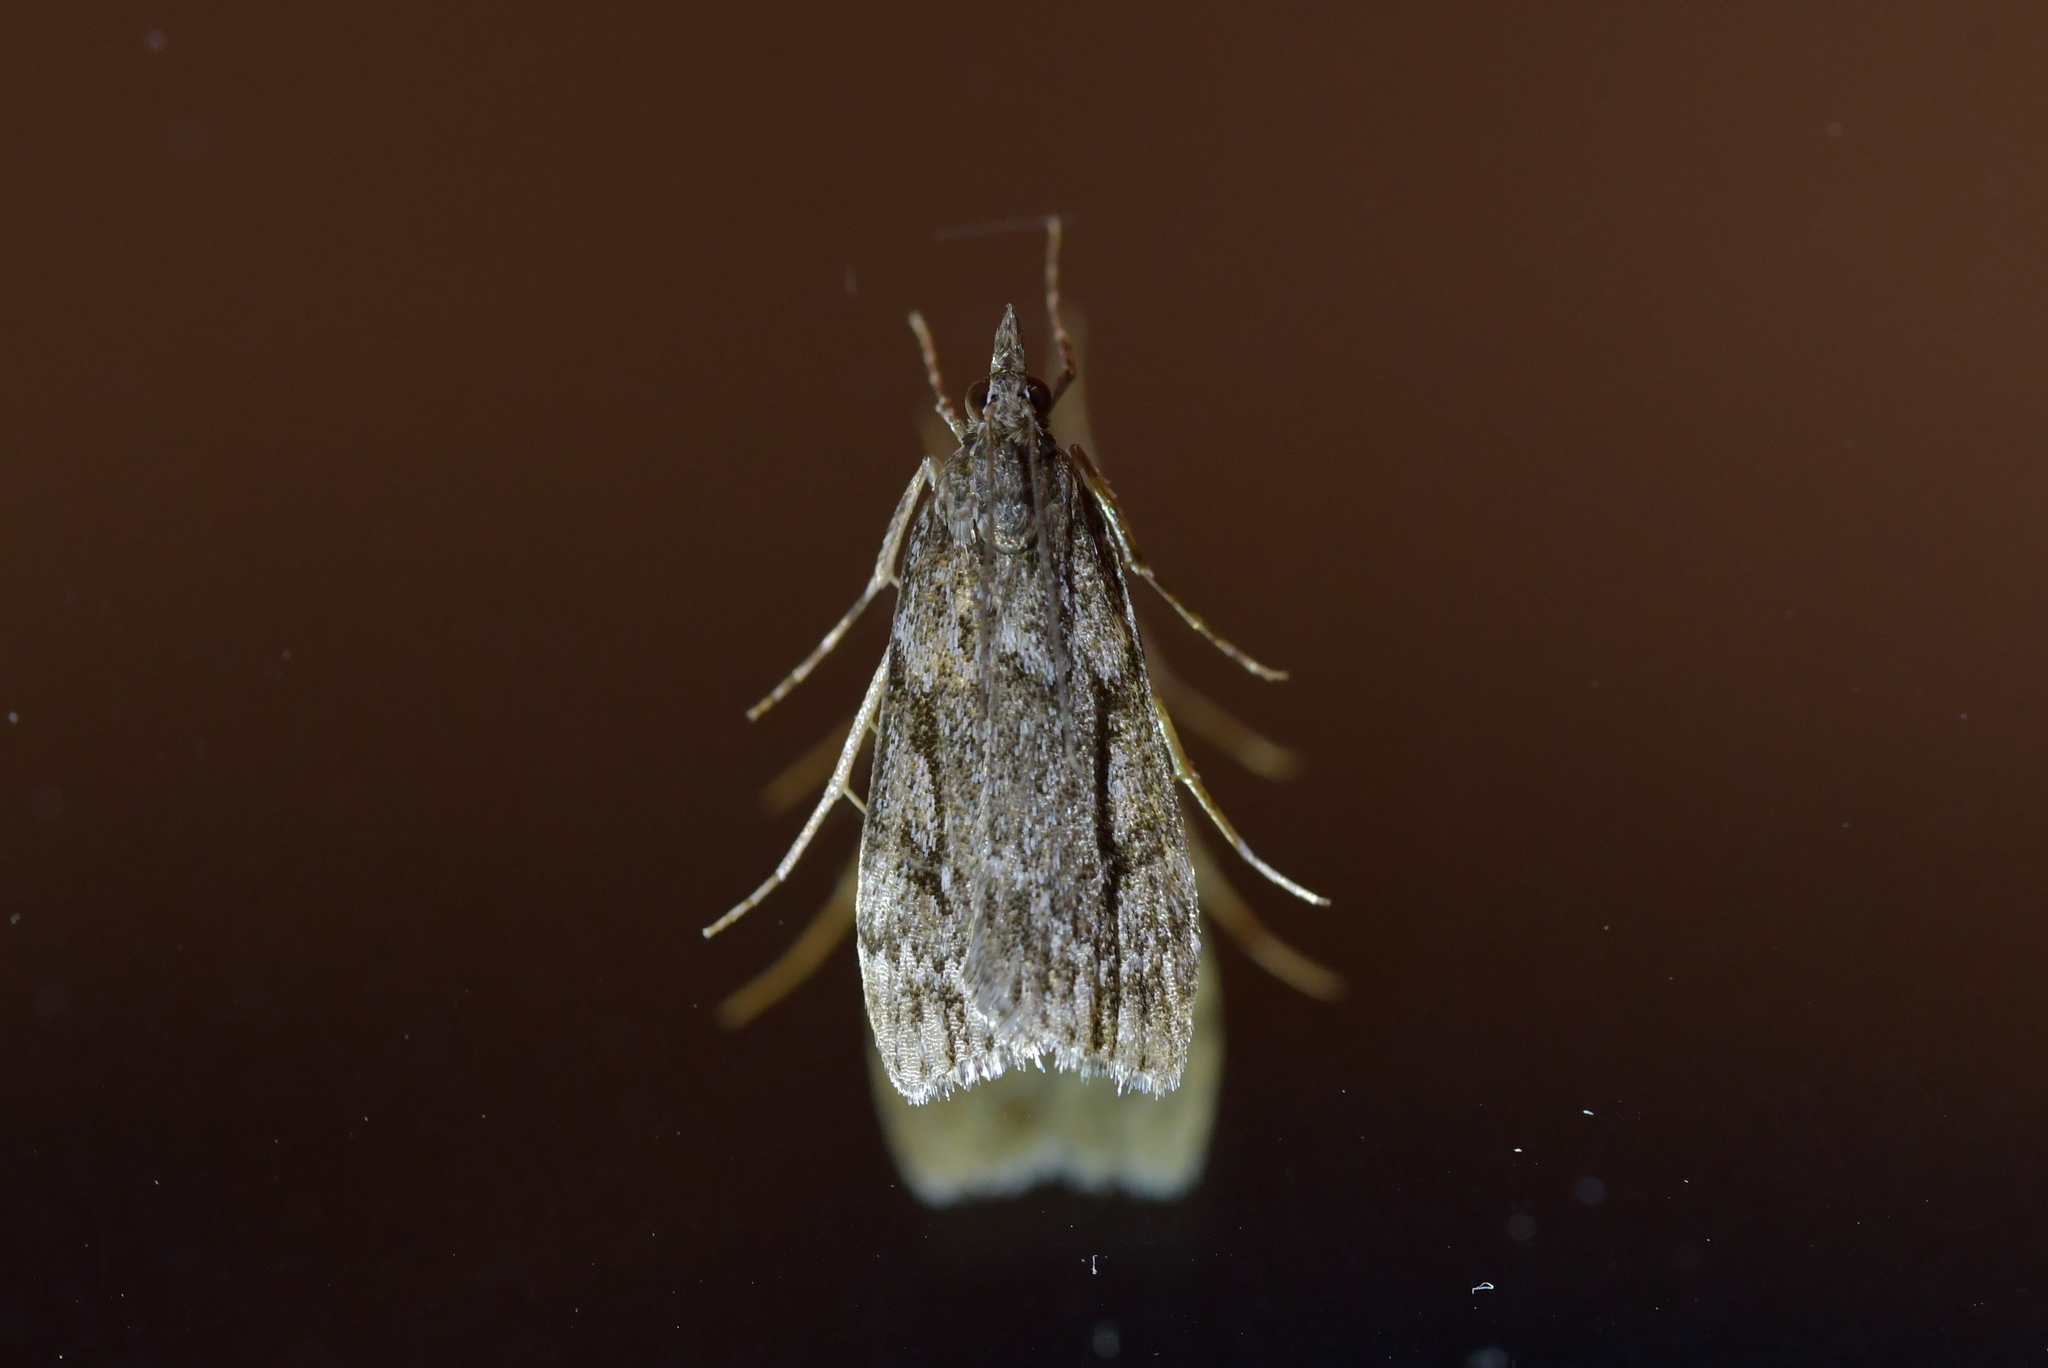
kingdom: Animalia
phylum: Arthropoda
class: Insecta
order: Lepidoptera
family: Crambidae
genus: Eudonia
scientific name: Eudonia bisinualis
